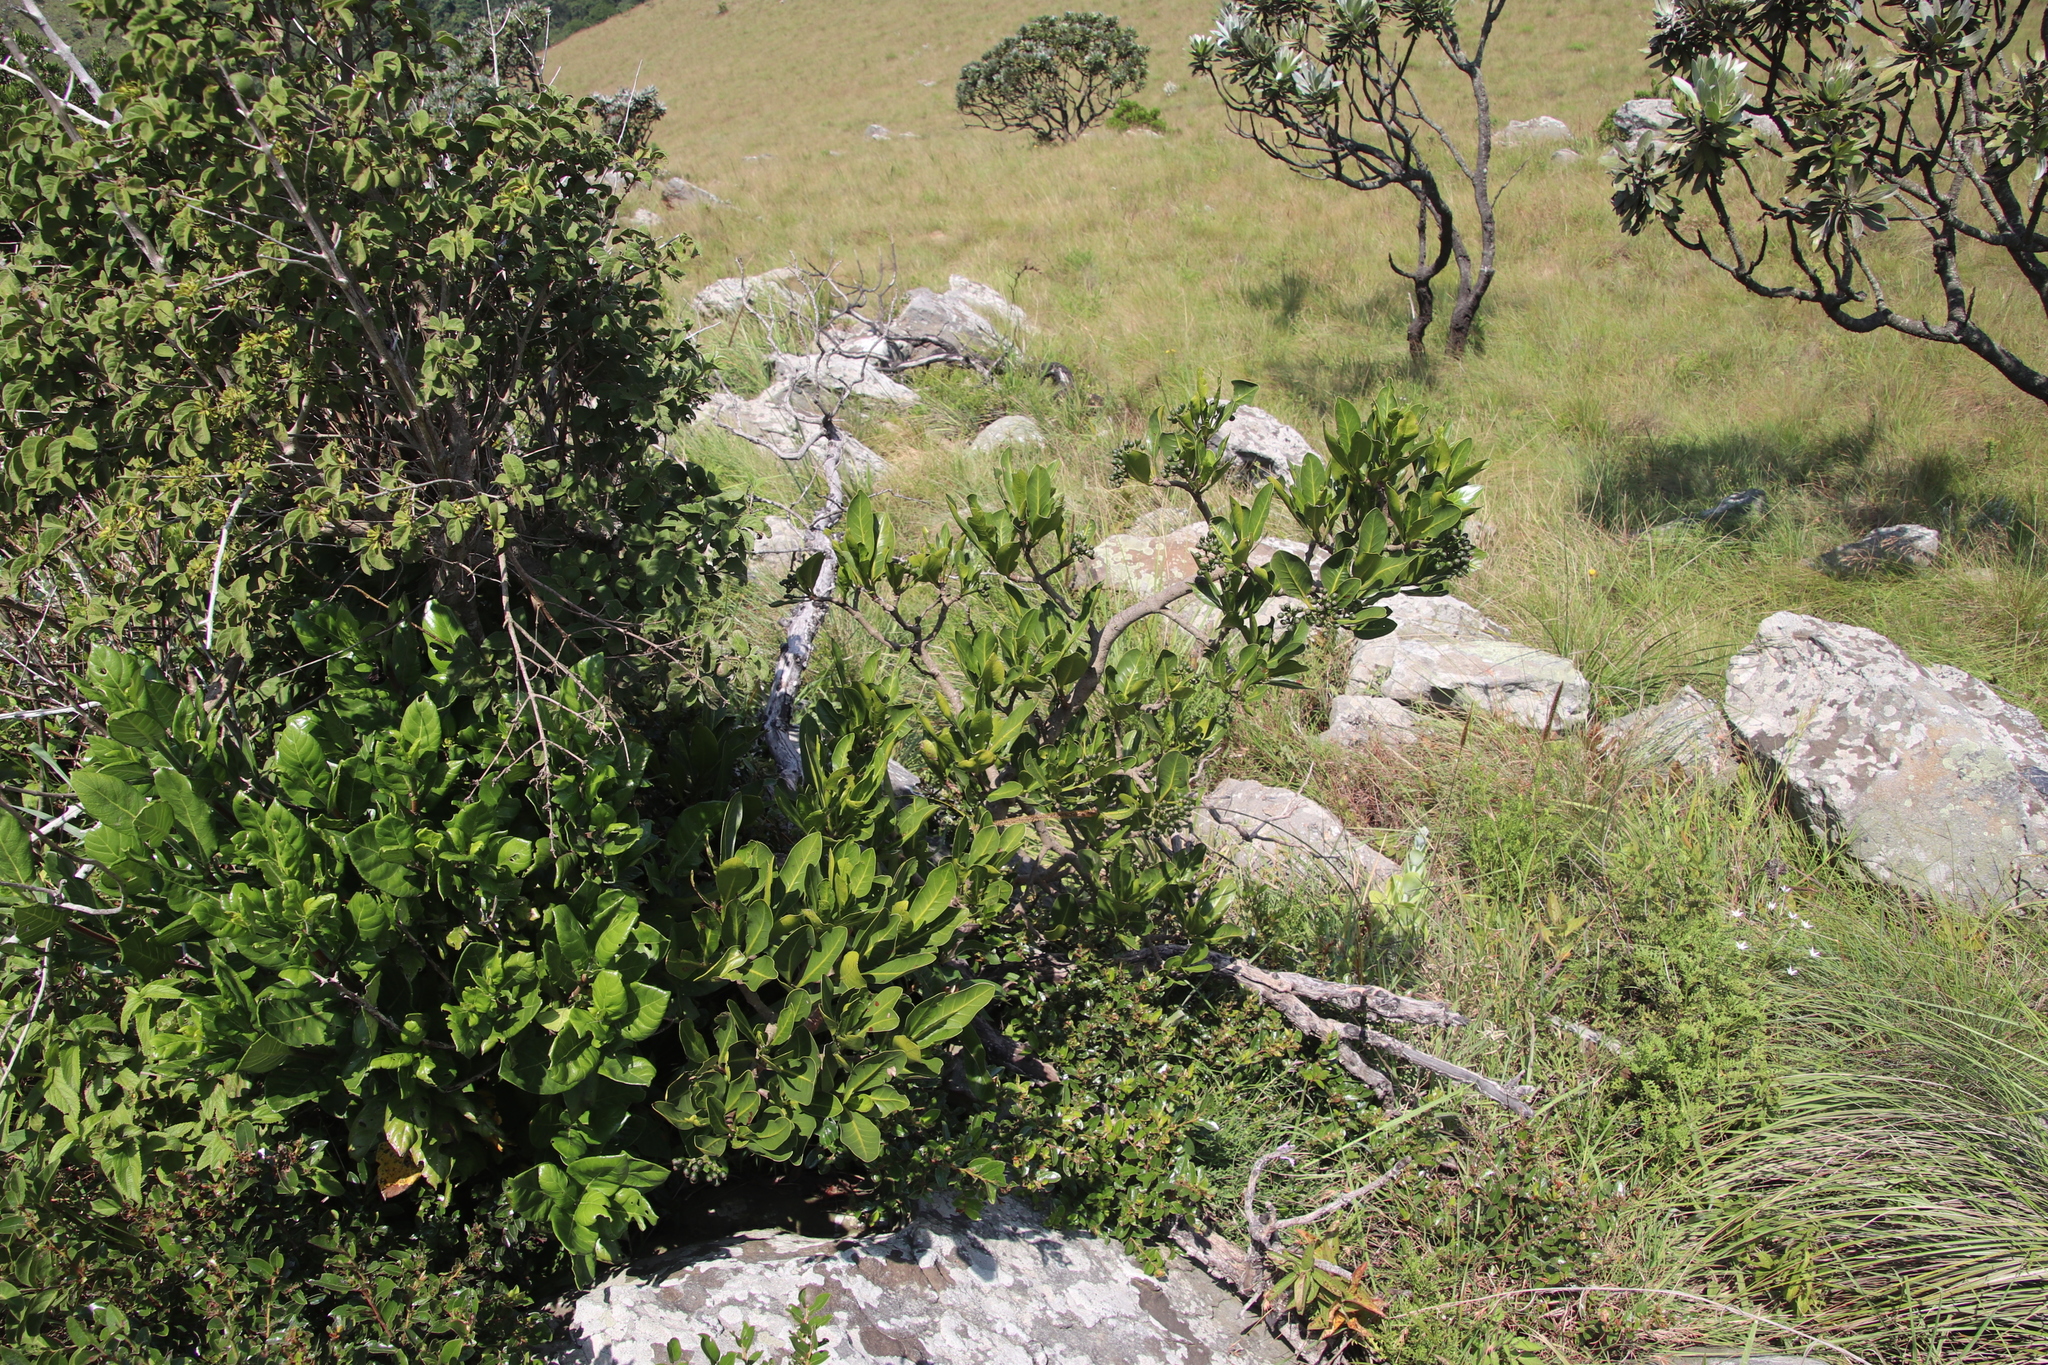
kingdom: Plantae
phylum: Tracheophyta
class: Magnoliopsida
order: Gentianales
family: Rubiaceae
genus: Psychotria
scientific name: Psychotria
